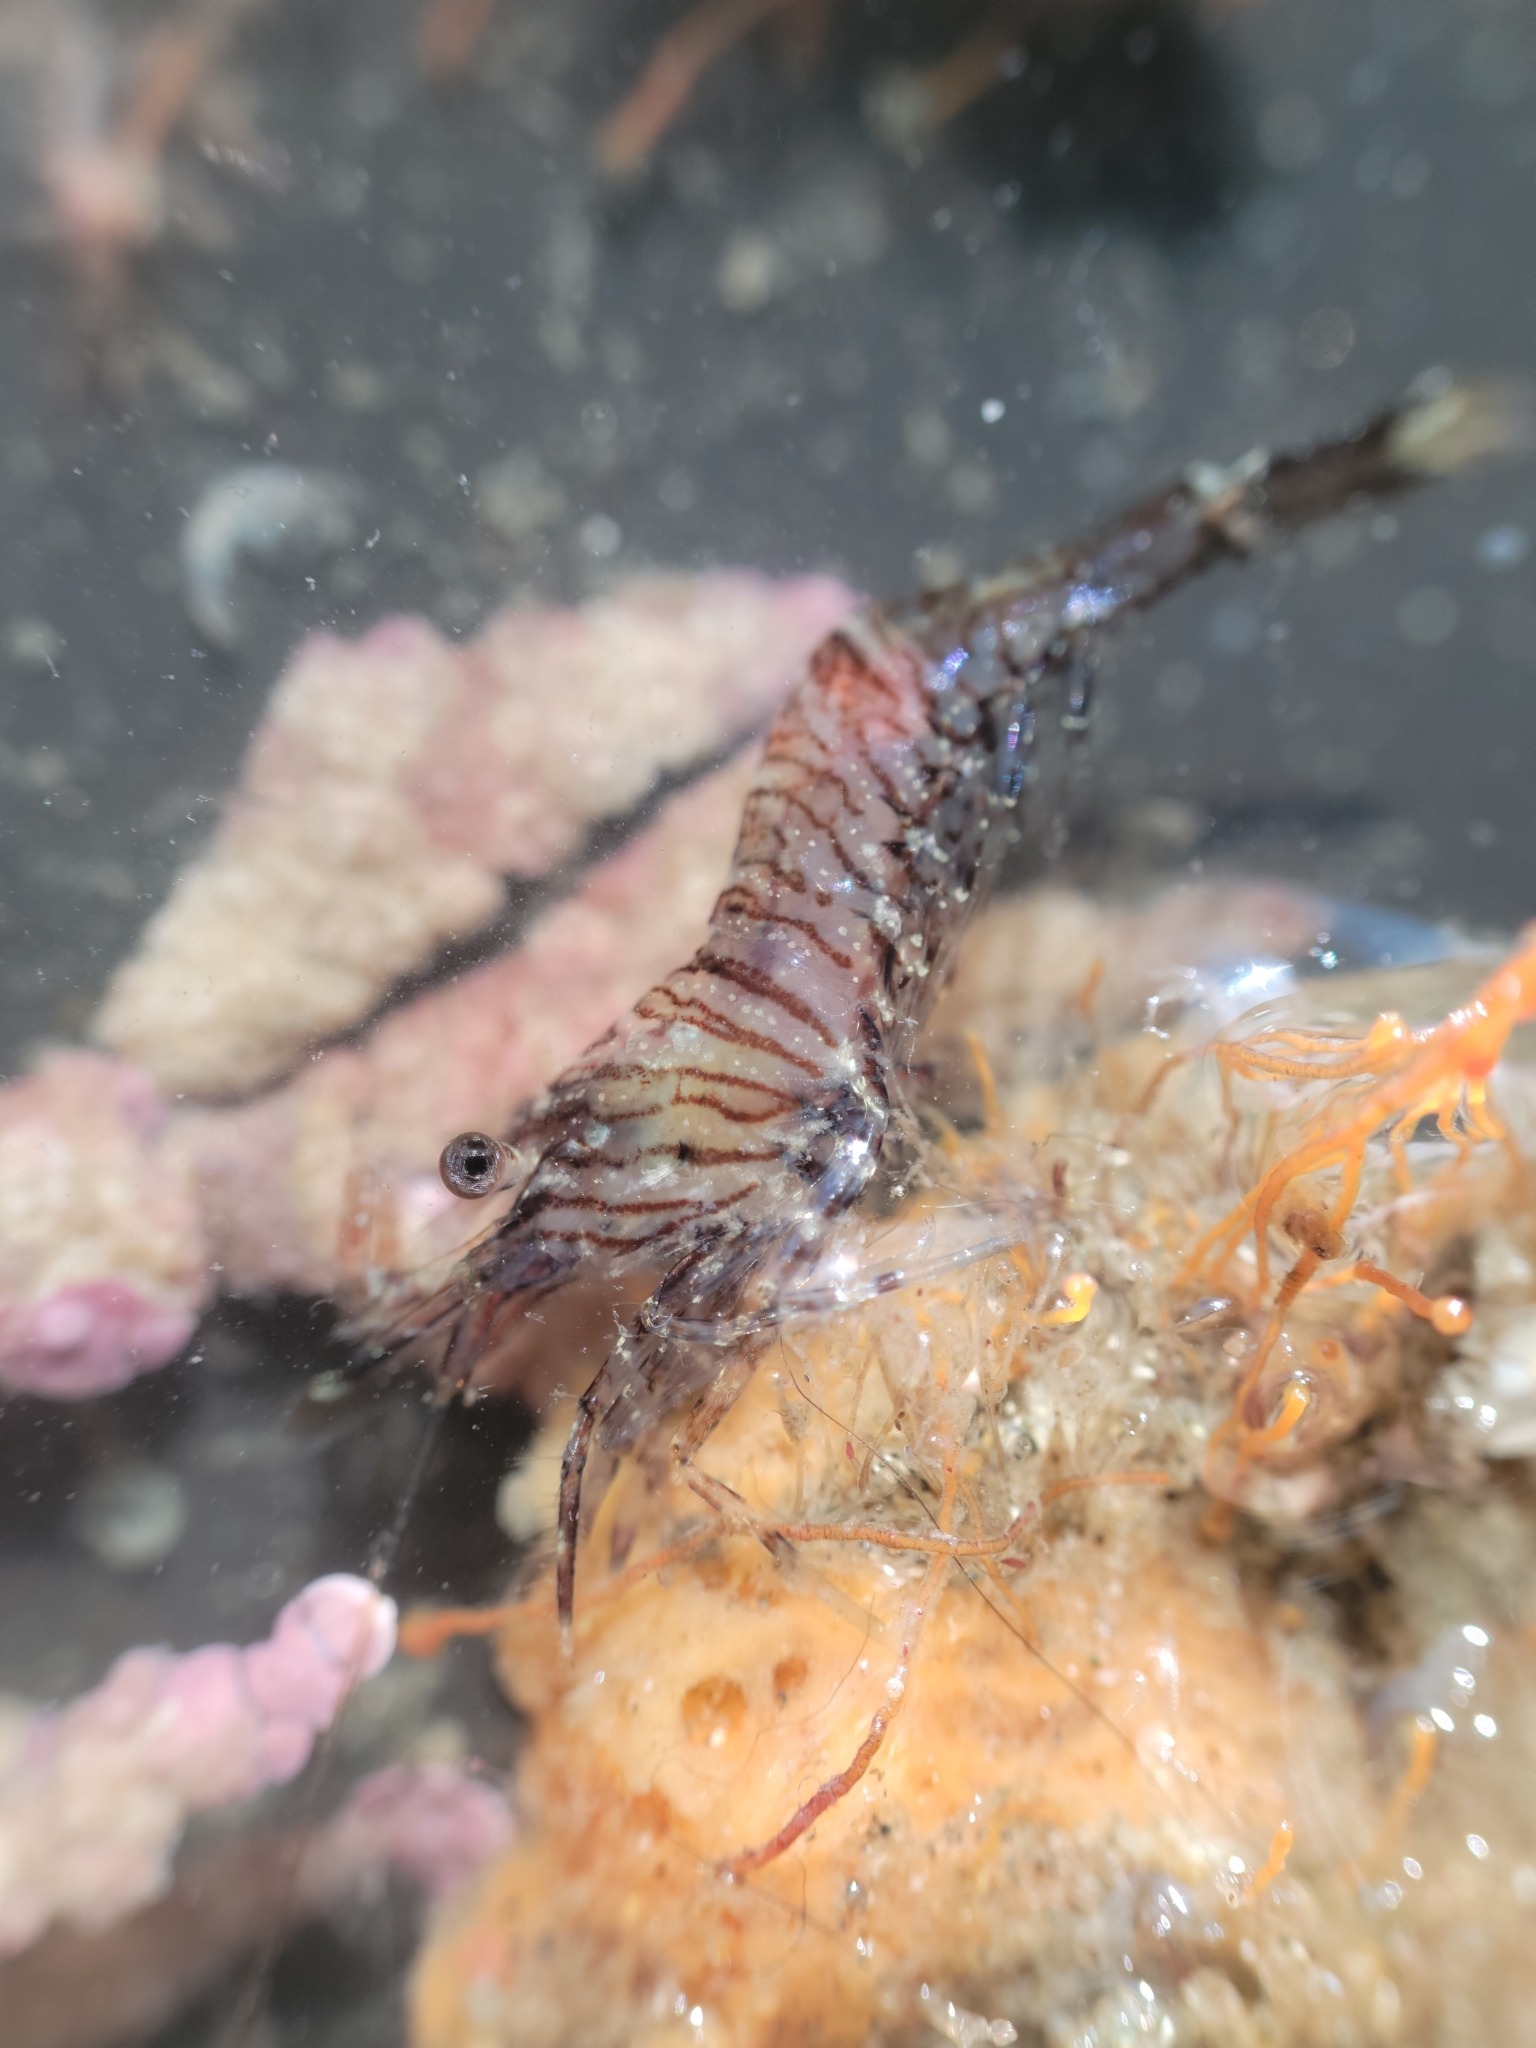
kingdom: Animalia
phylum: Arthropoda
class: Malacostraca
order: Decapoda
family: Thoridae
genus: Heptacarpus
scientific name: Heptacarpus sitchensis
